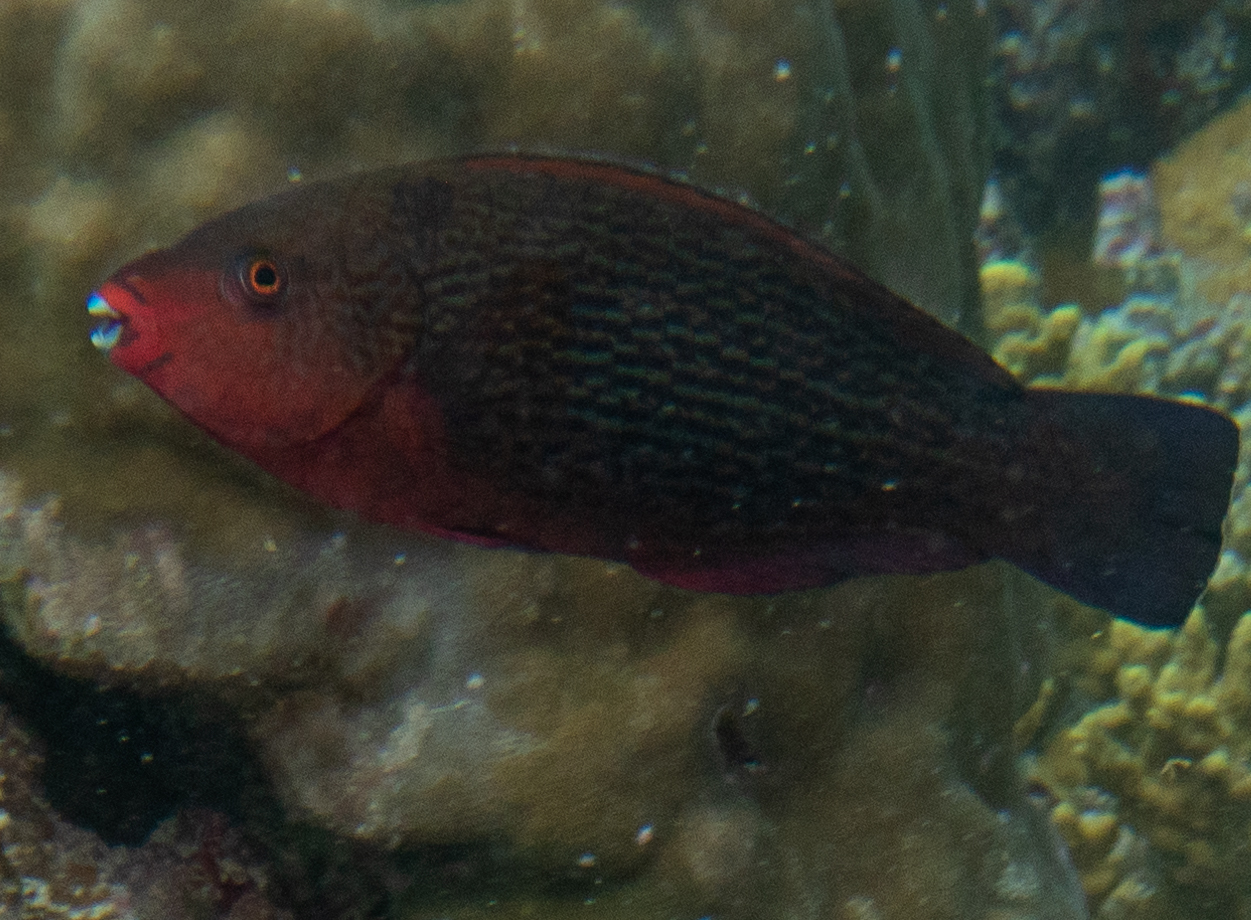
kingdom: Animalia
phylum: Chordata
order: Perciformes
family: Scaridae
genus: Scarus
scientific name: Scarus niger
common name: Dusky parrotfish
